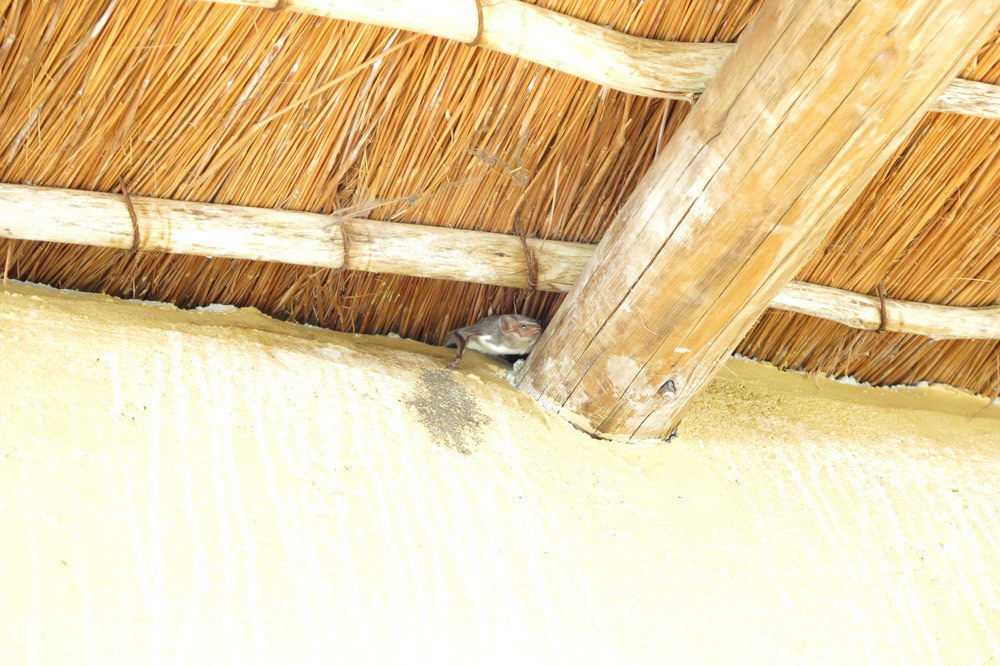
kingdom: Animalia
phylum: Chordata
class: Mammalia
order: Chiroptera
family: Emballonuridae
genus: Taphozous
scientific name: Taphozous mauritianus
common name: Mauritian tomb bat
